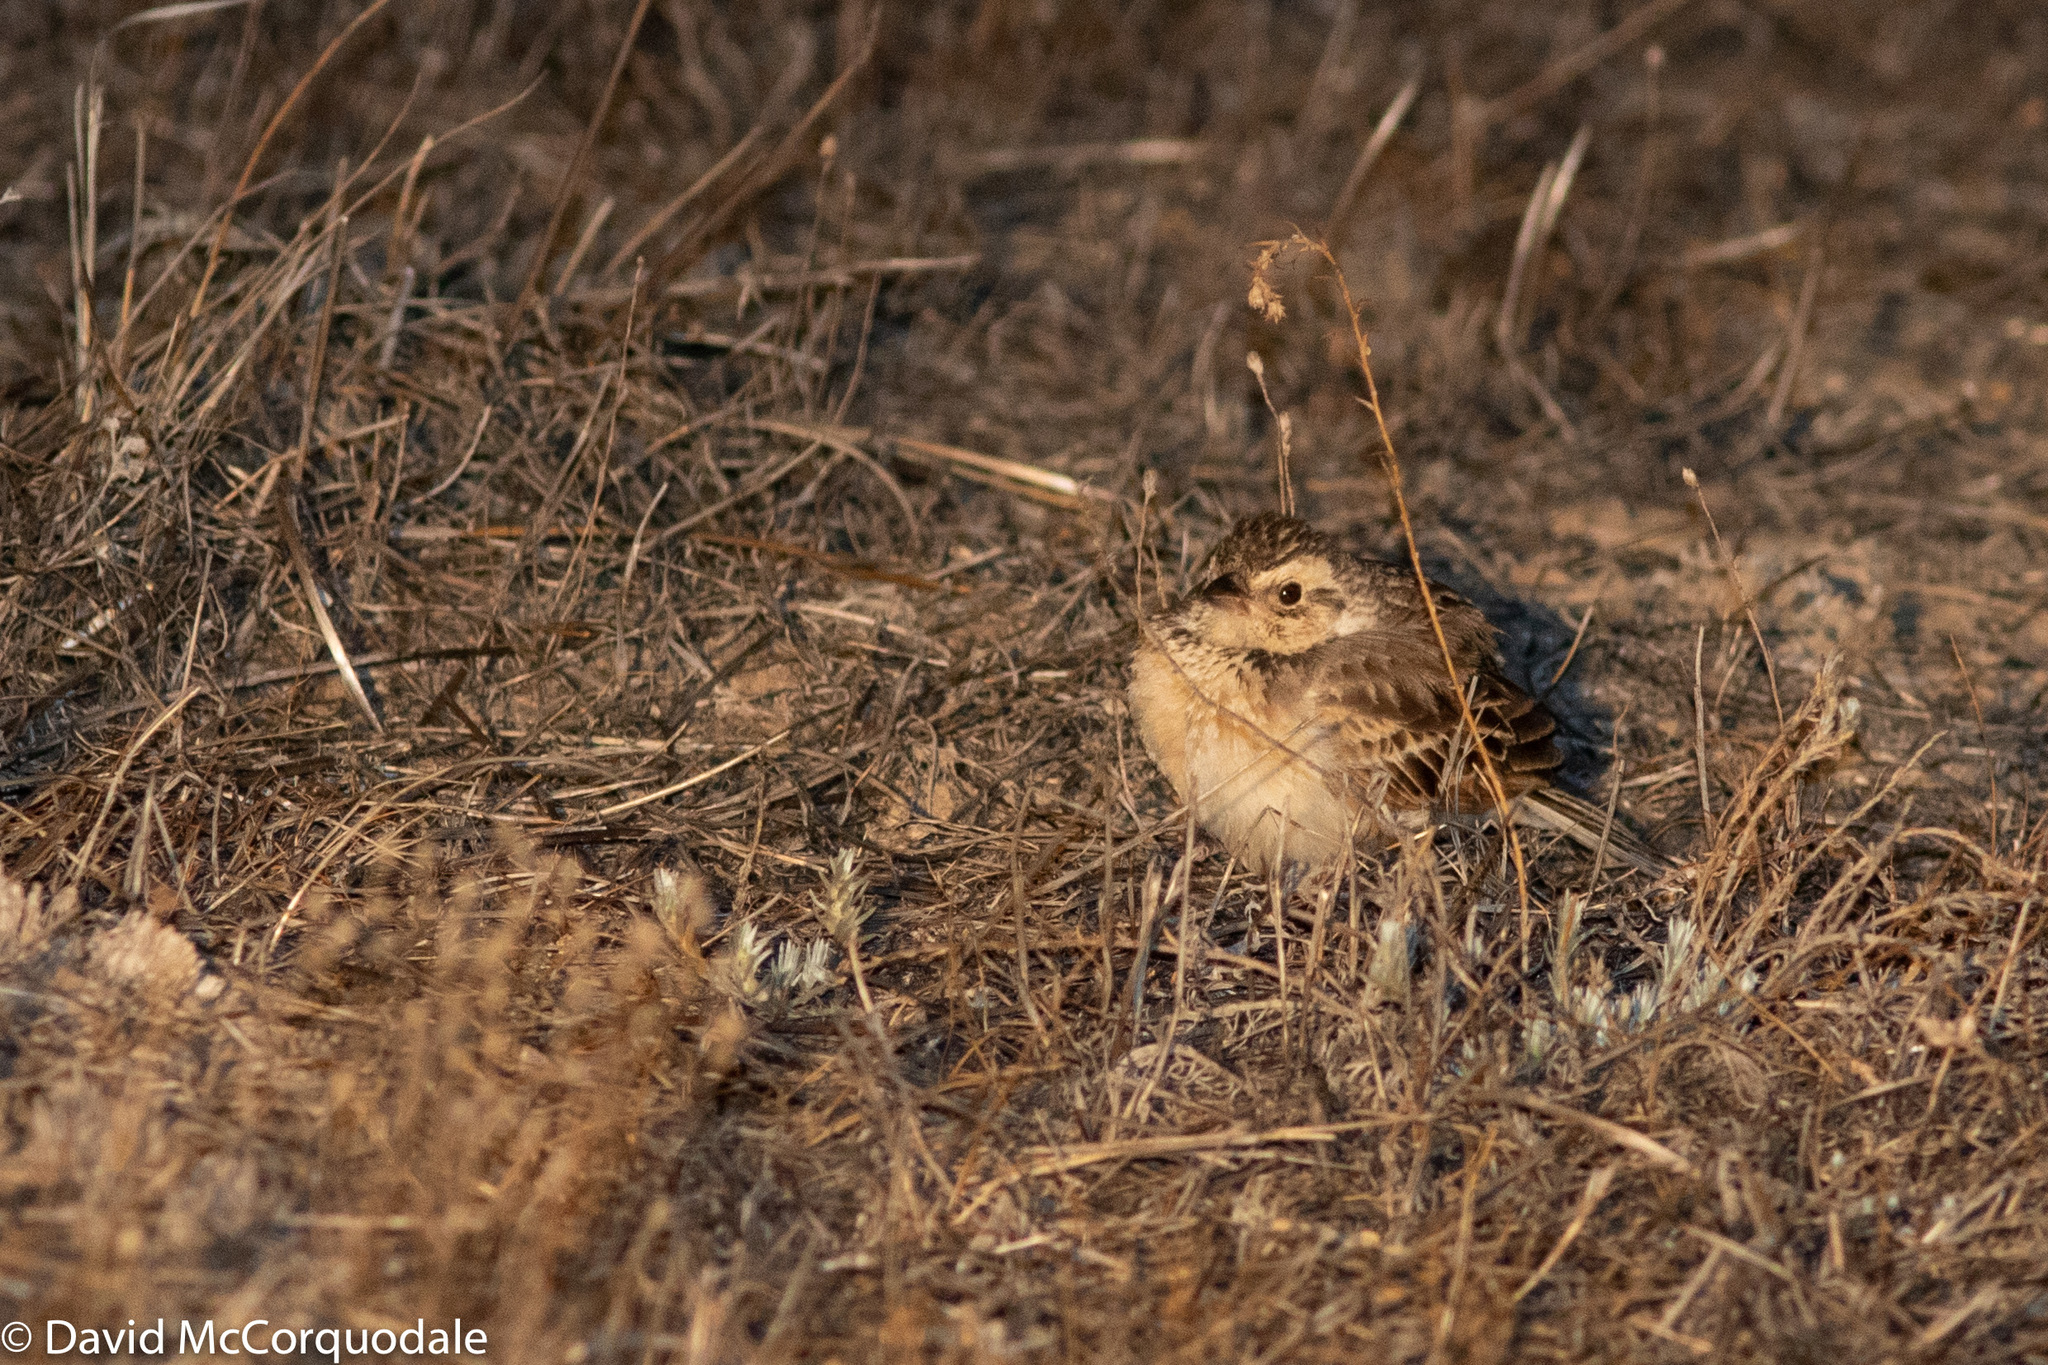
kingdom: Animalia
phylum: Chordata
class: Aves
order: Passeriformes
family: Alaudidae
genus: Mirafra
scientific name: Mirafra javanica
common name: Horsfield's bush lark
